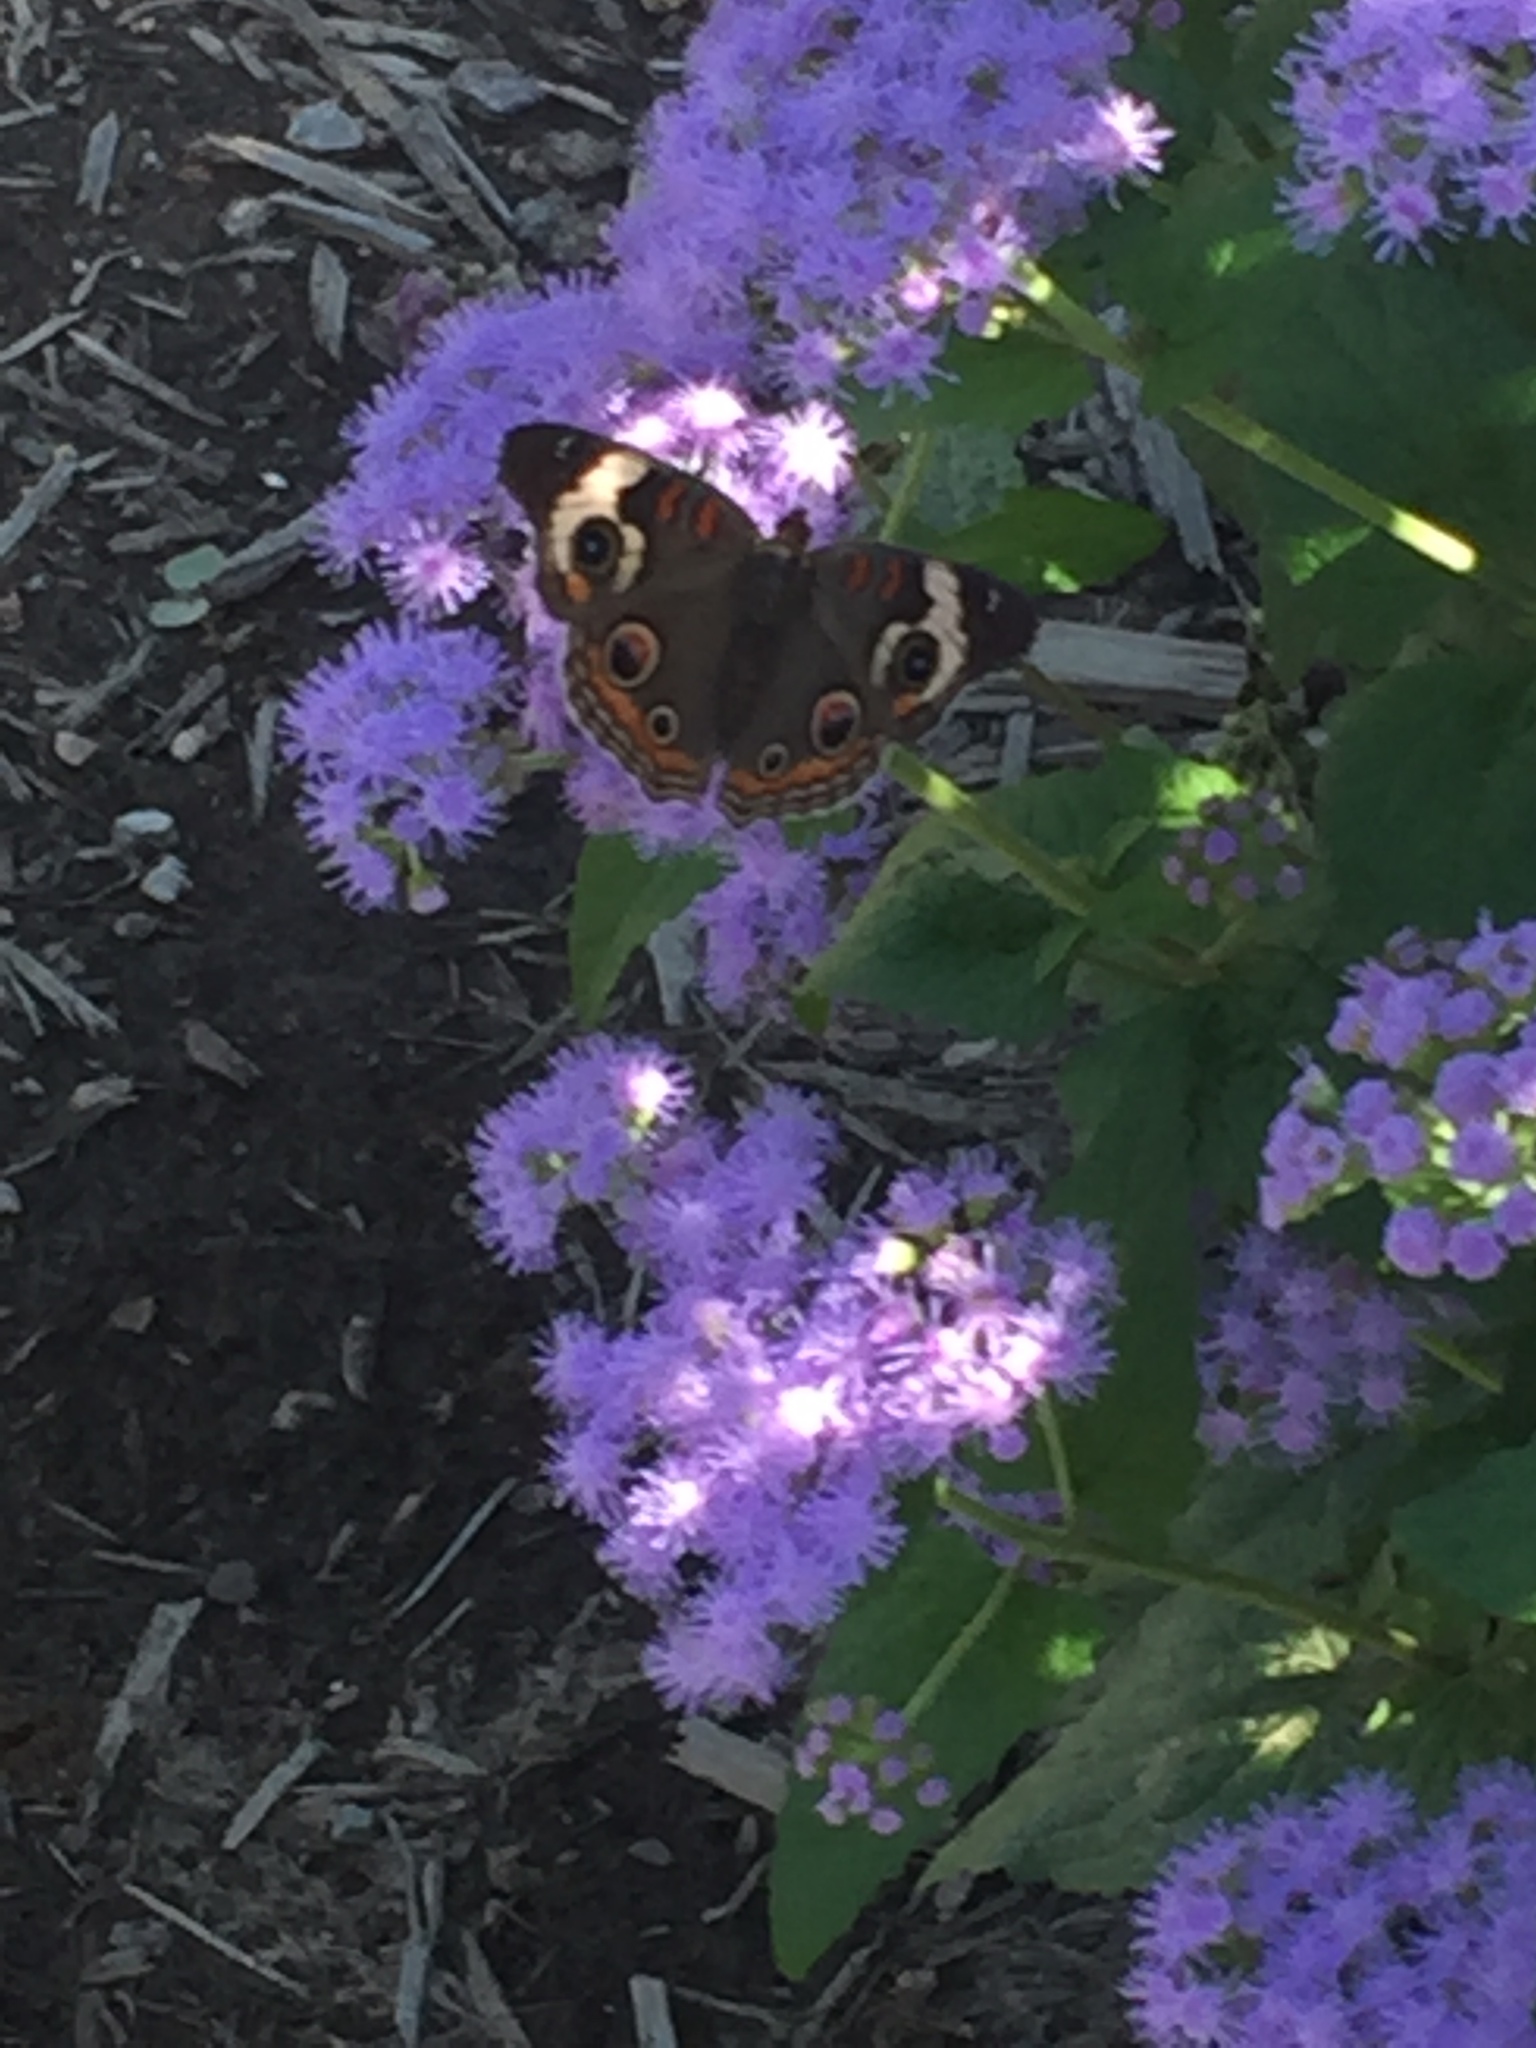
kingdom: Animalia
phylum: Arthropoda
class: Insecta
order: Lepidoptera
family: Nymphalidae
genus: Junonia
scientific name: Junonia coenia
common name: Common buckeye
